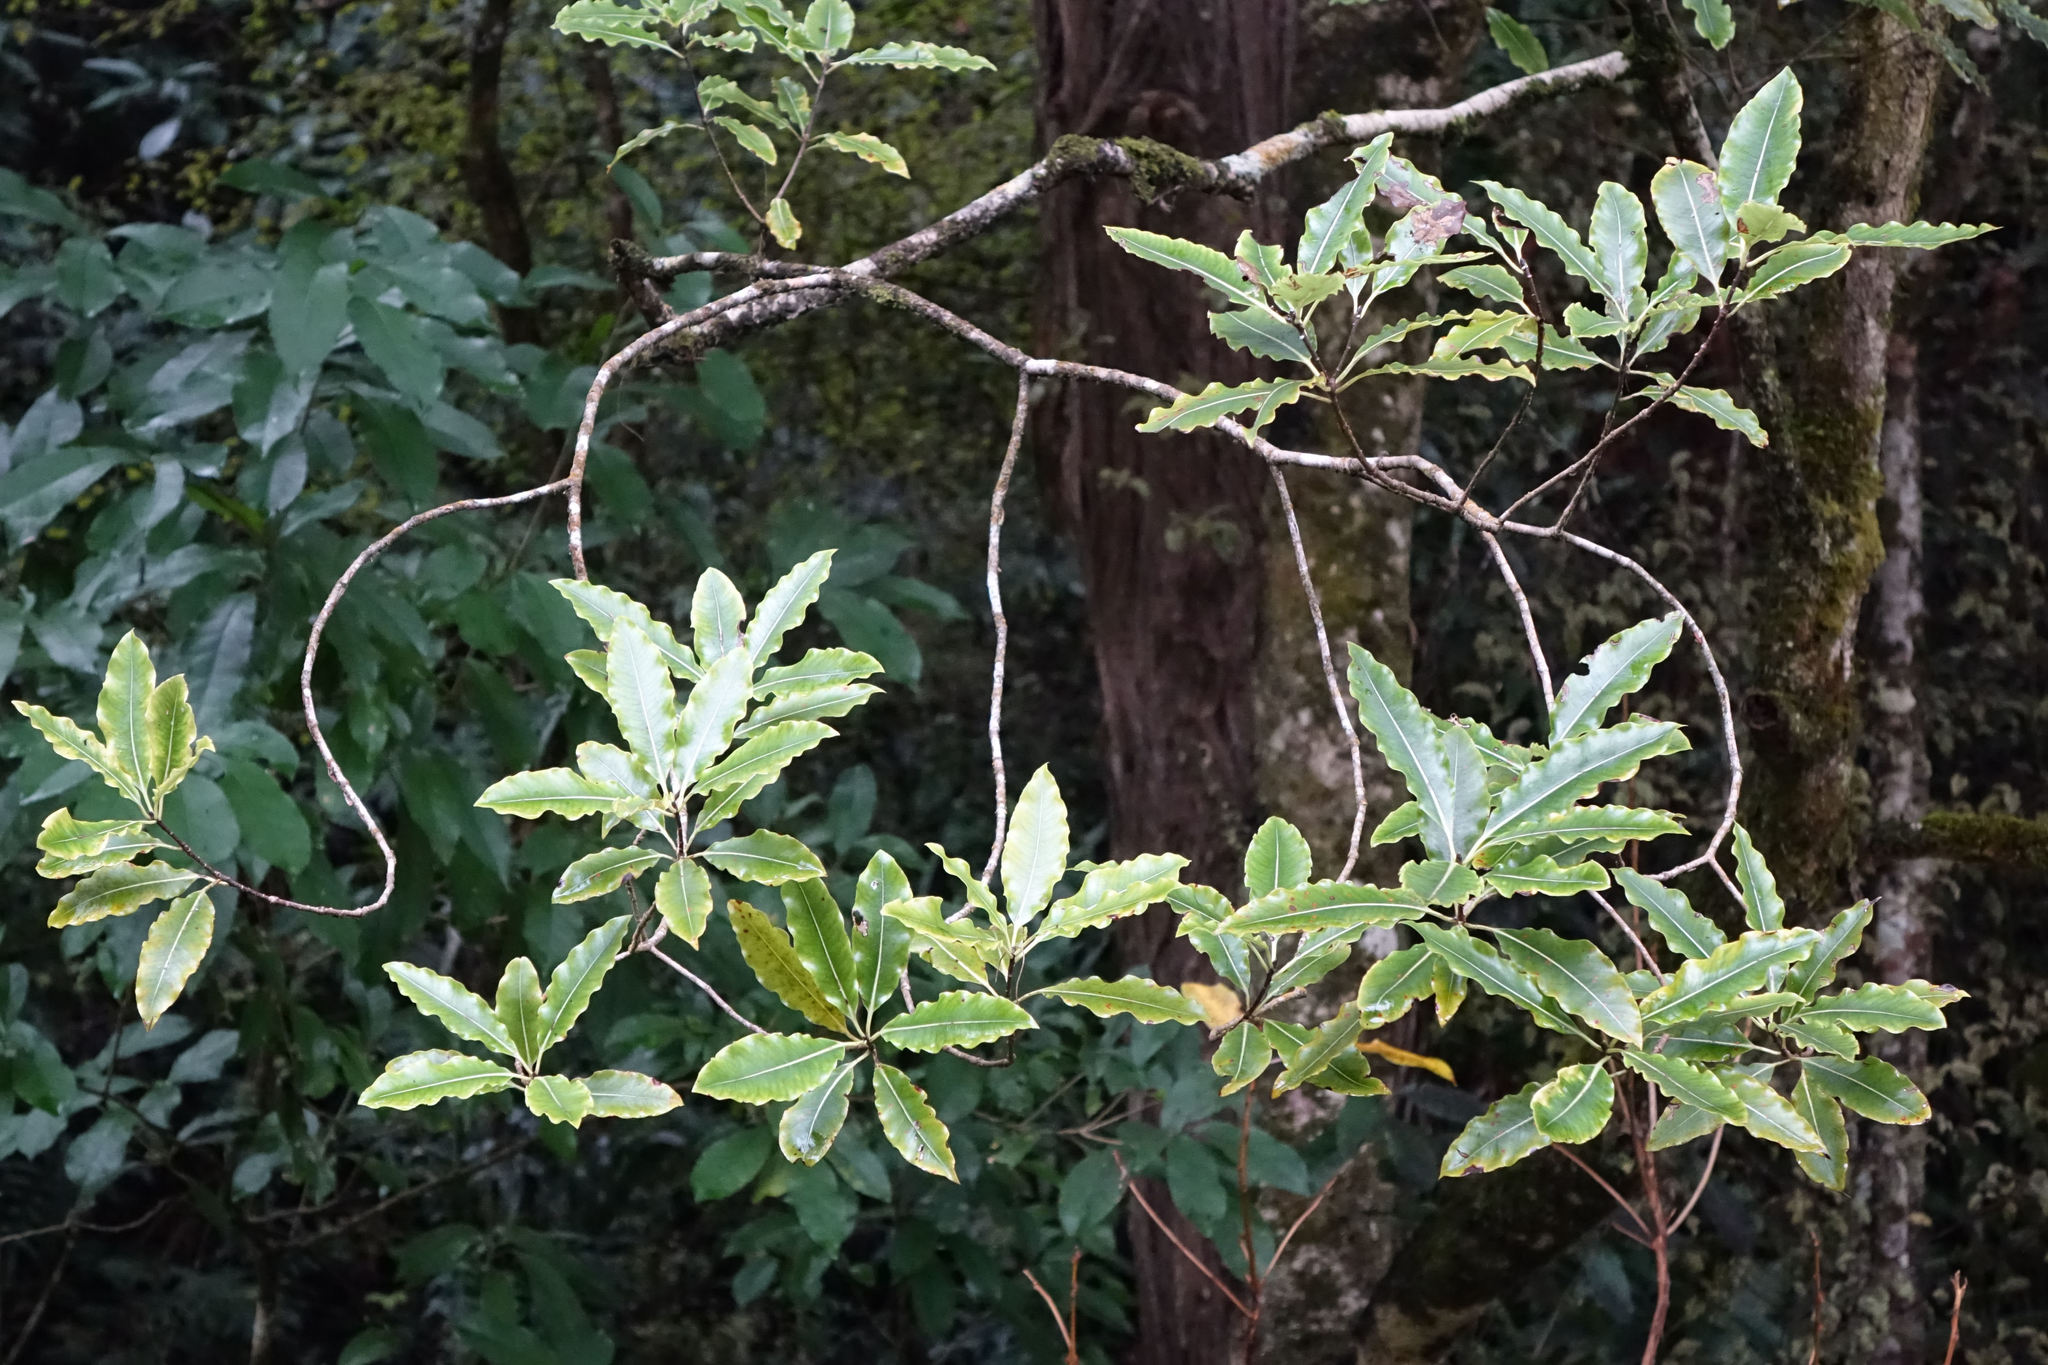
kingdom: Plantae
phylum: Tracheophyta
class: Magnoliopsida
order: Apiales
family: Pittosporaceae
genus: Pittosporum
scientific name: Pittosporum eugenioides
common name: Lemonwood
